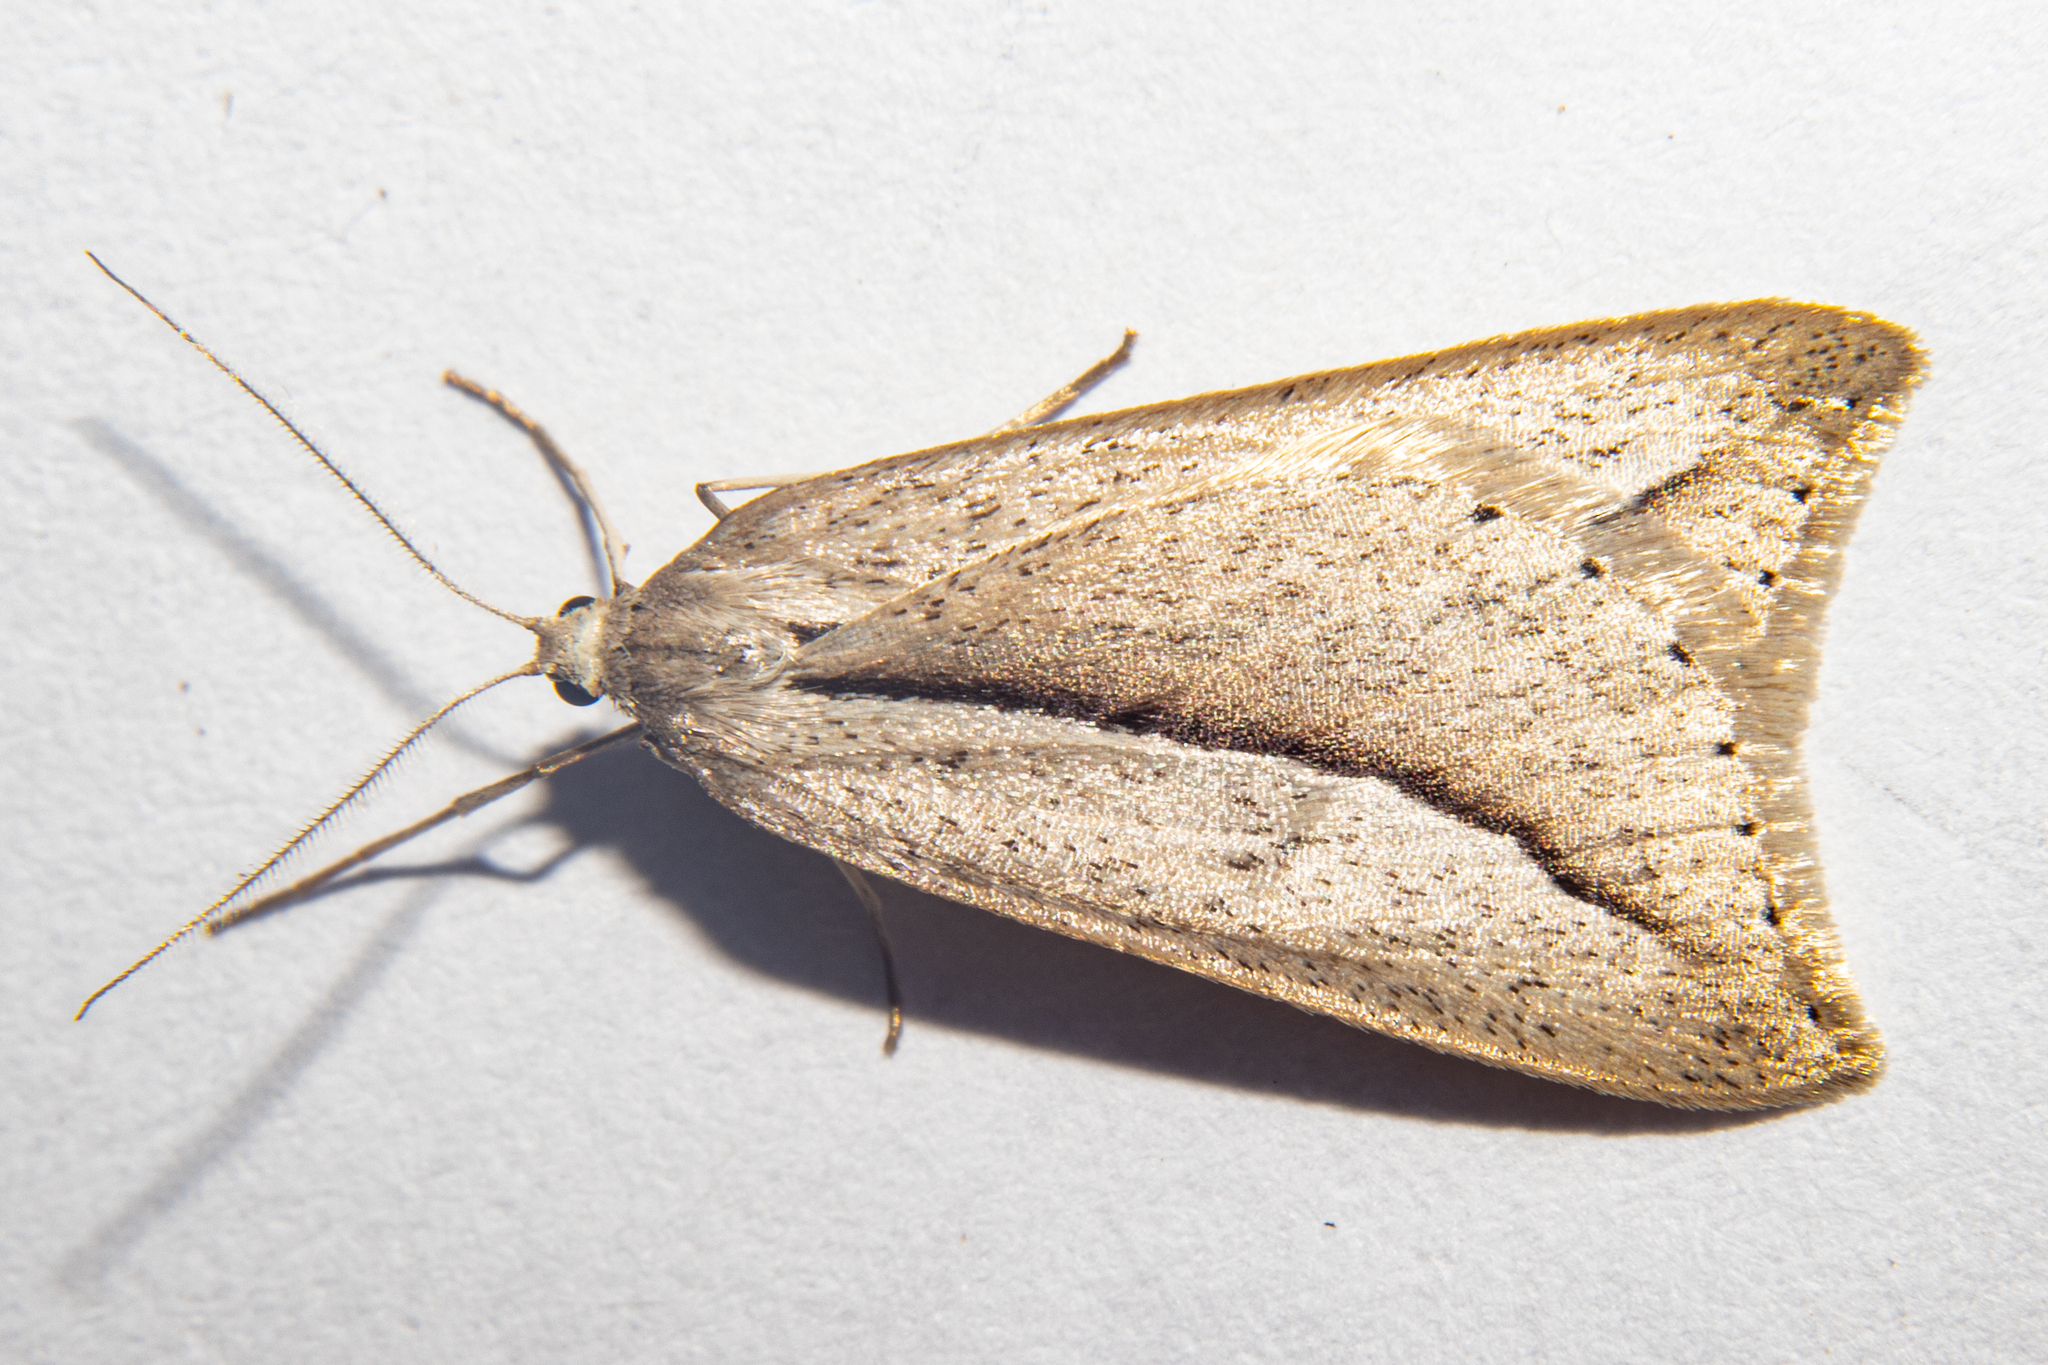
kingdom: Animalia
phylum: Arthropoda
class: Insecta
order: Lepidoptera
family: Geometridae
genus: Theoxena
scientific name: Theoxena scissaria
